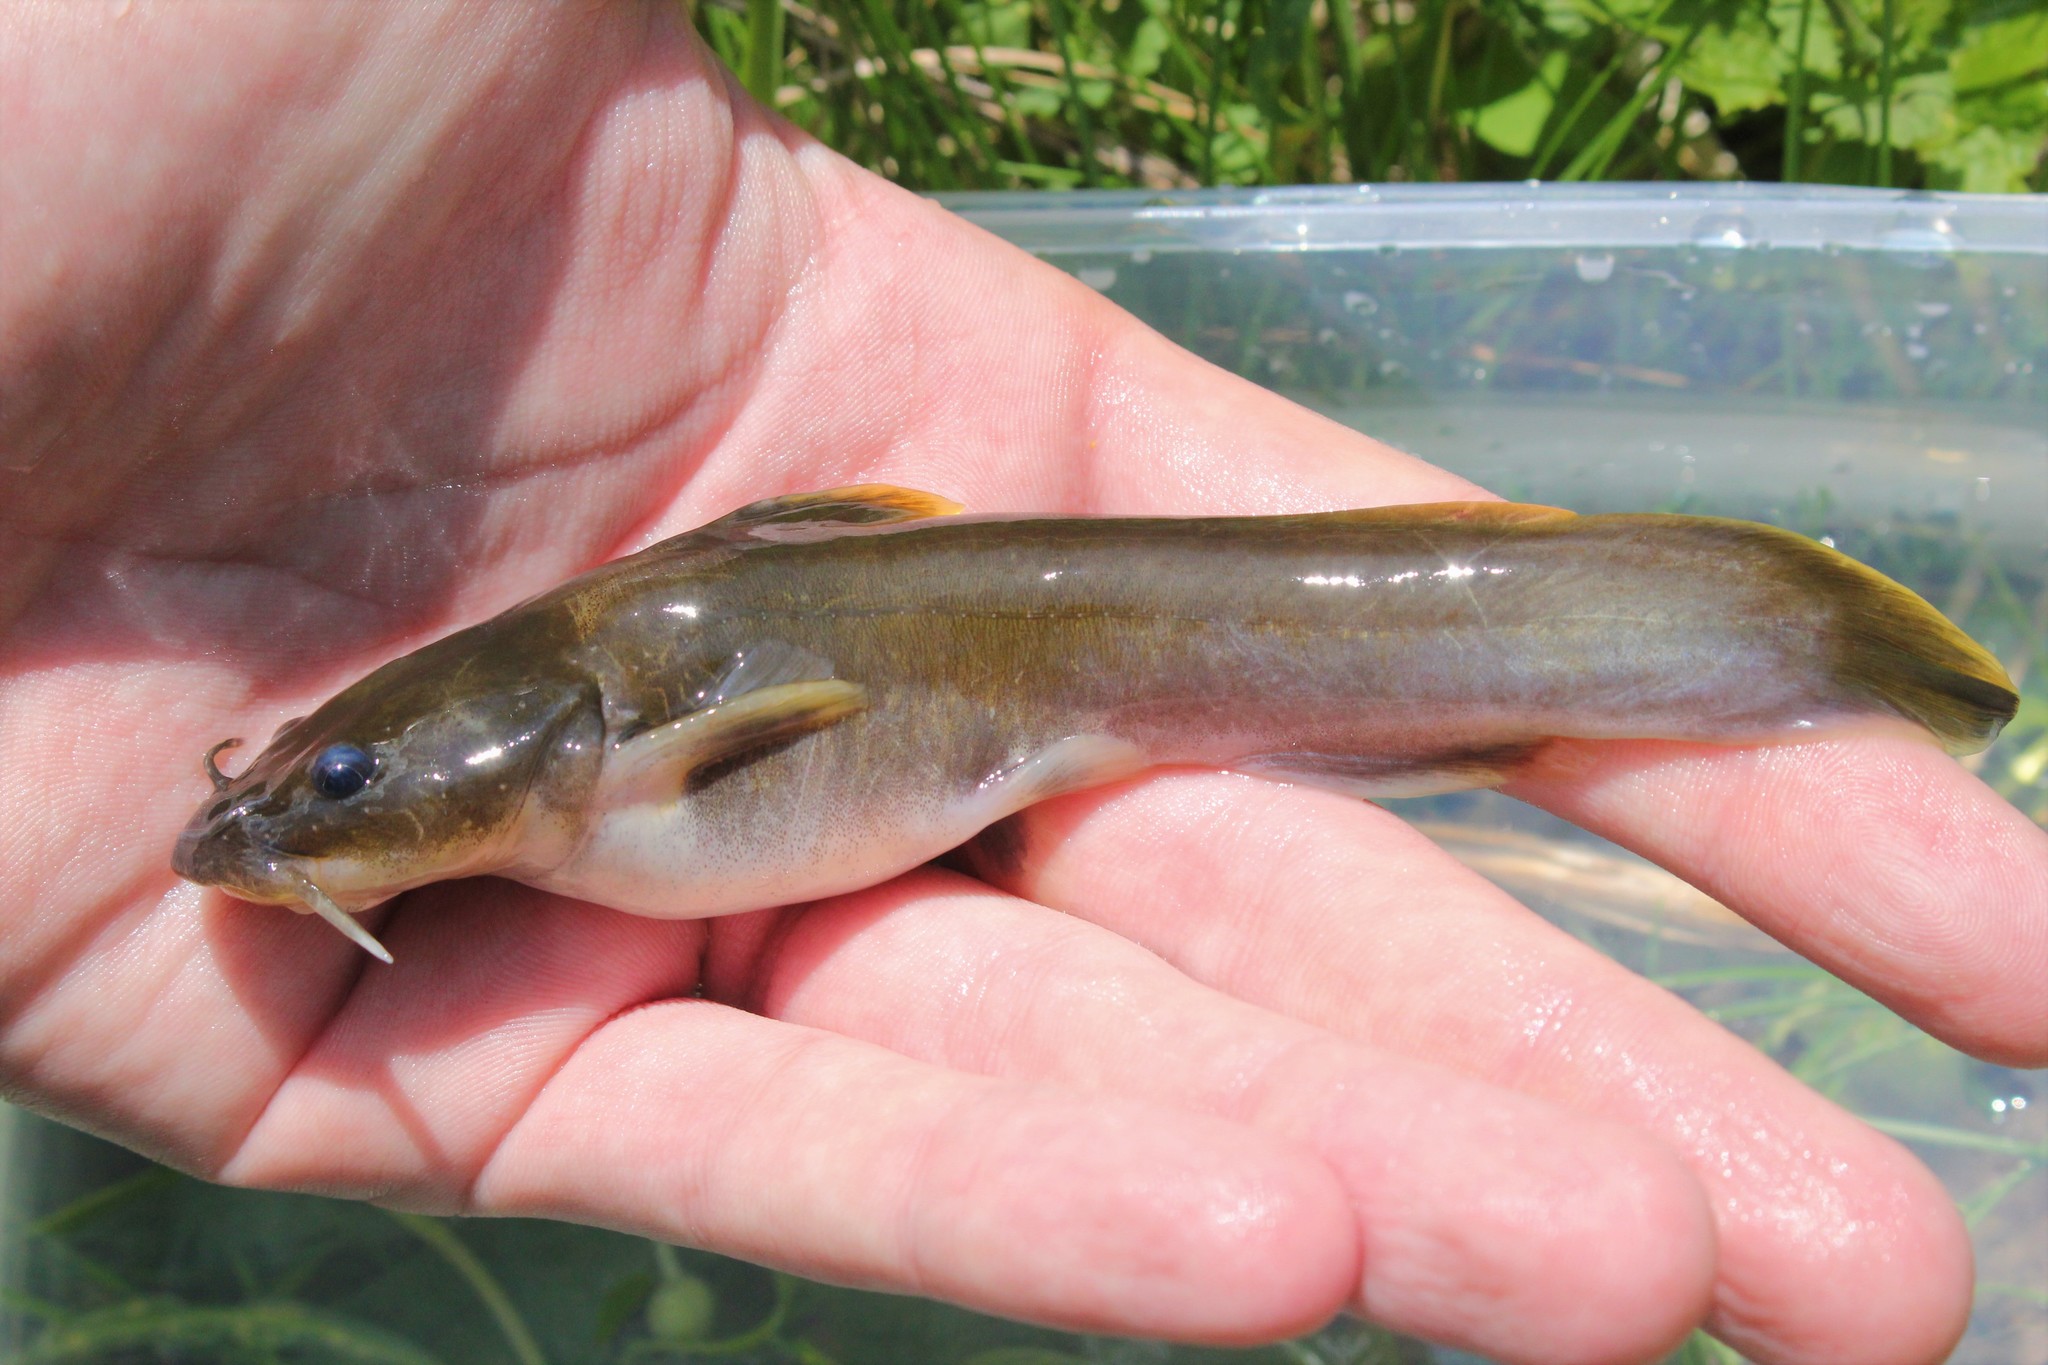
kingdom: Animalia
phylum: Chordata
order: Siluriformes
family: Ictaluridae
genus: Noturus
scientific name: Noturus flavus
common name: Stonecat
